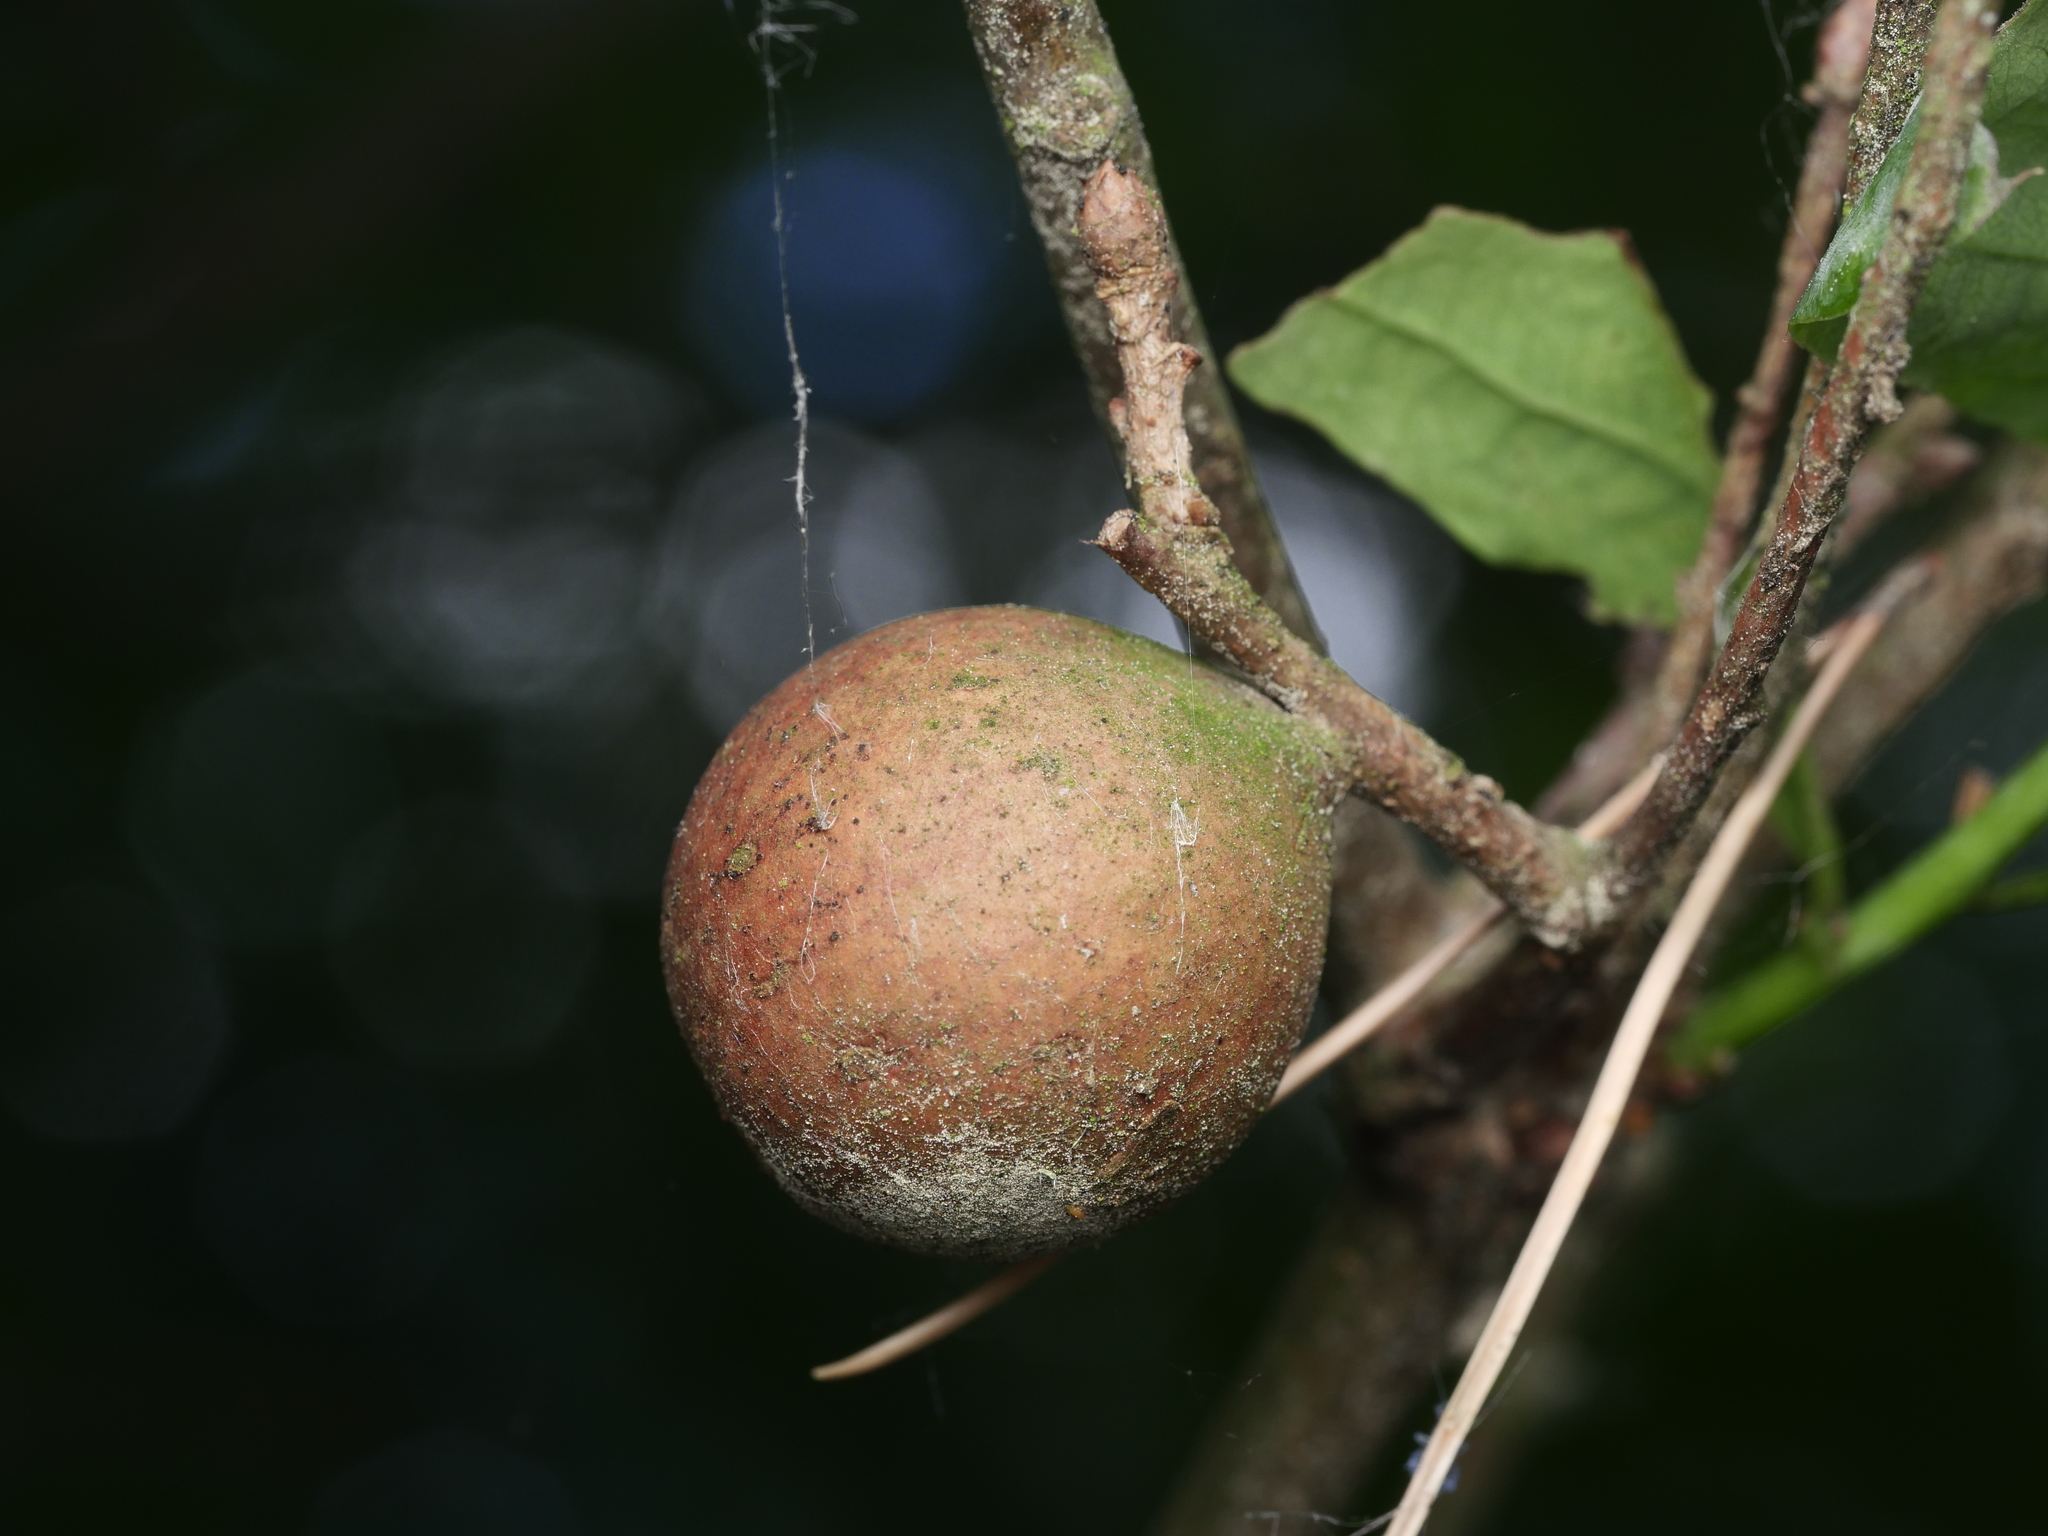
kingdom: Animalia
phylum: Arthropoda
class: Insecta
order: Hymenoptera
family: Cynipidae
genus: Andricus
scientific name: Andricus kollari
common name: Marble gall
